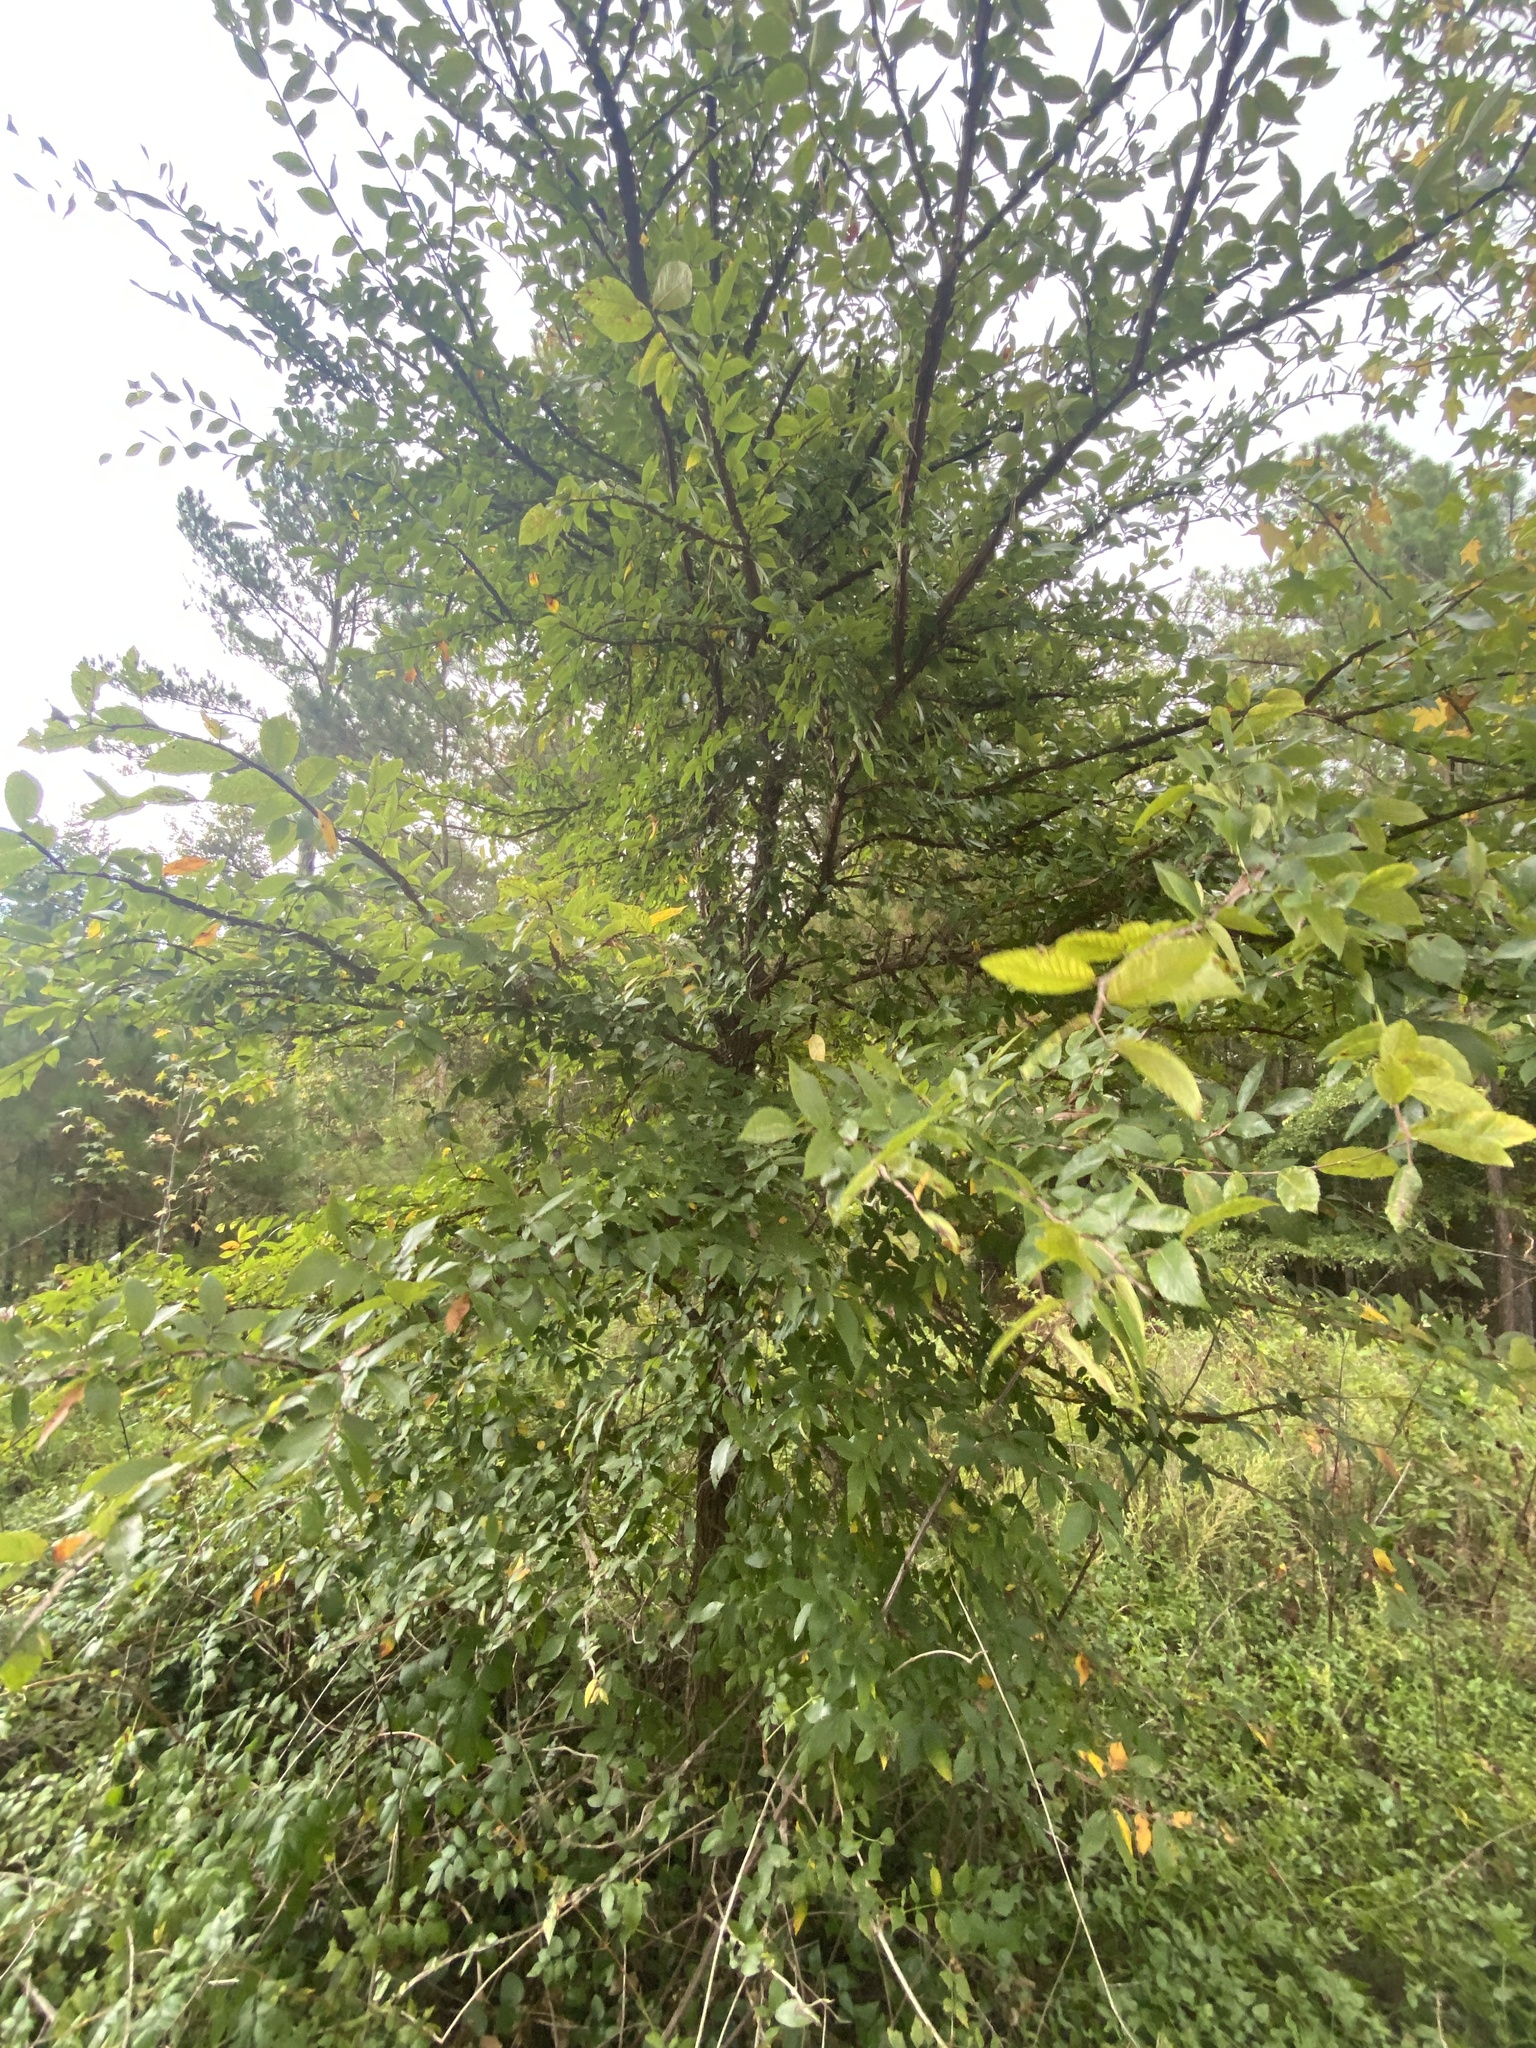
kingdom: Plantae
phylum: Tracheophyta
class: Magnoliopsida
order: Rosales
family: Ulmaceae
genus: Ulmus
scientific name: Ulmus alata
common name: Winged elm
